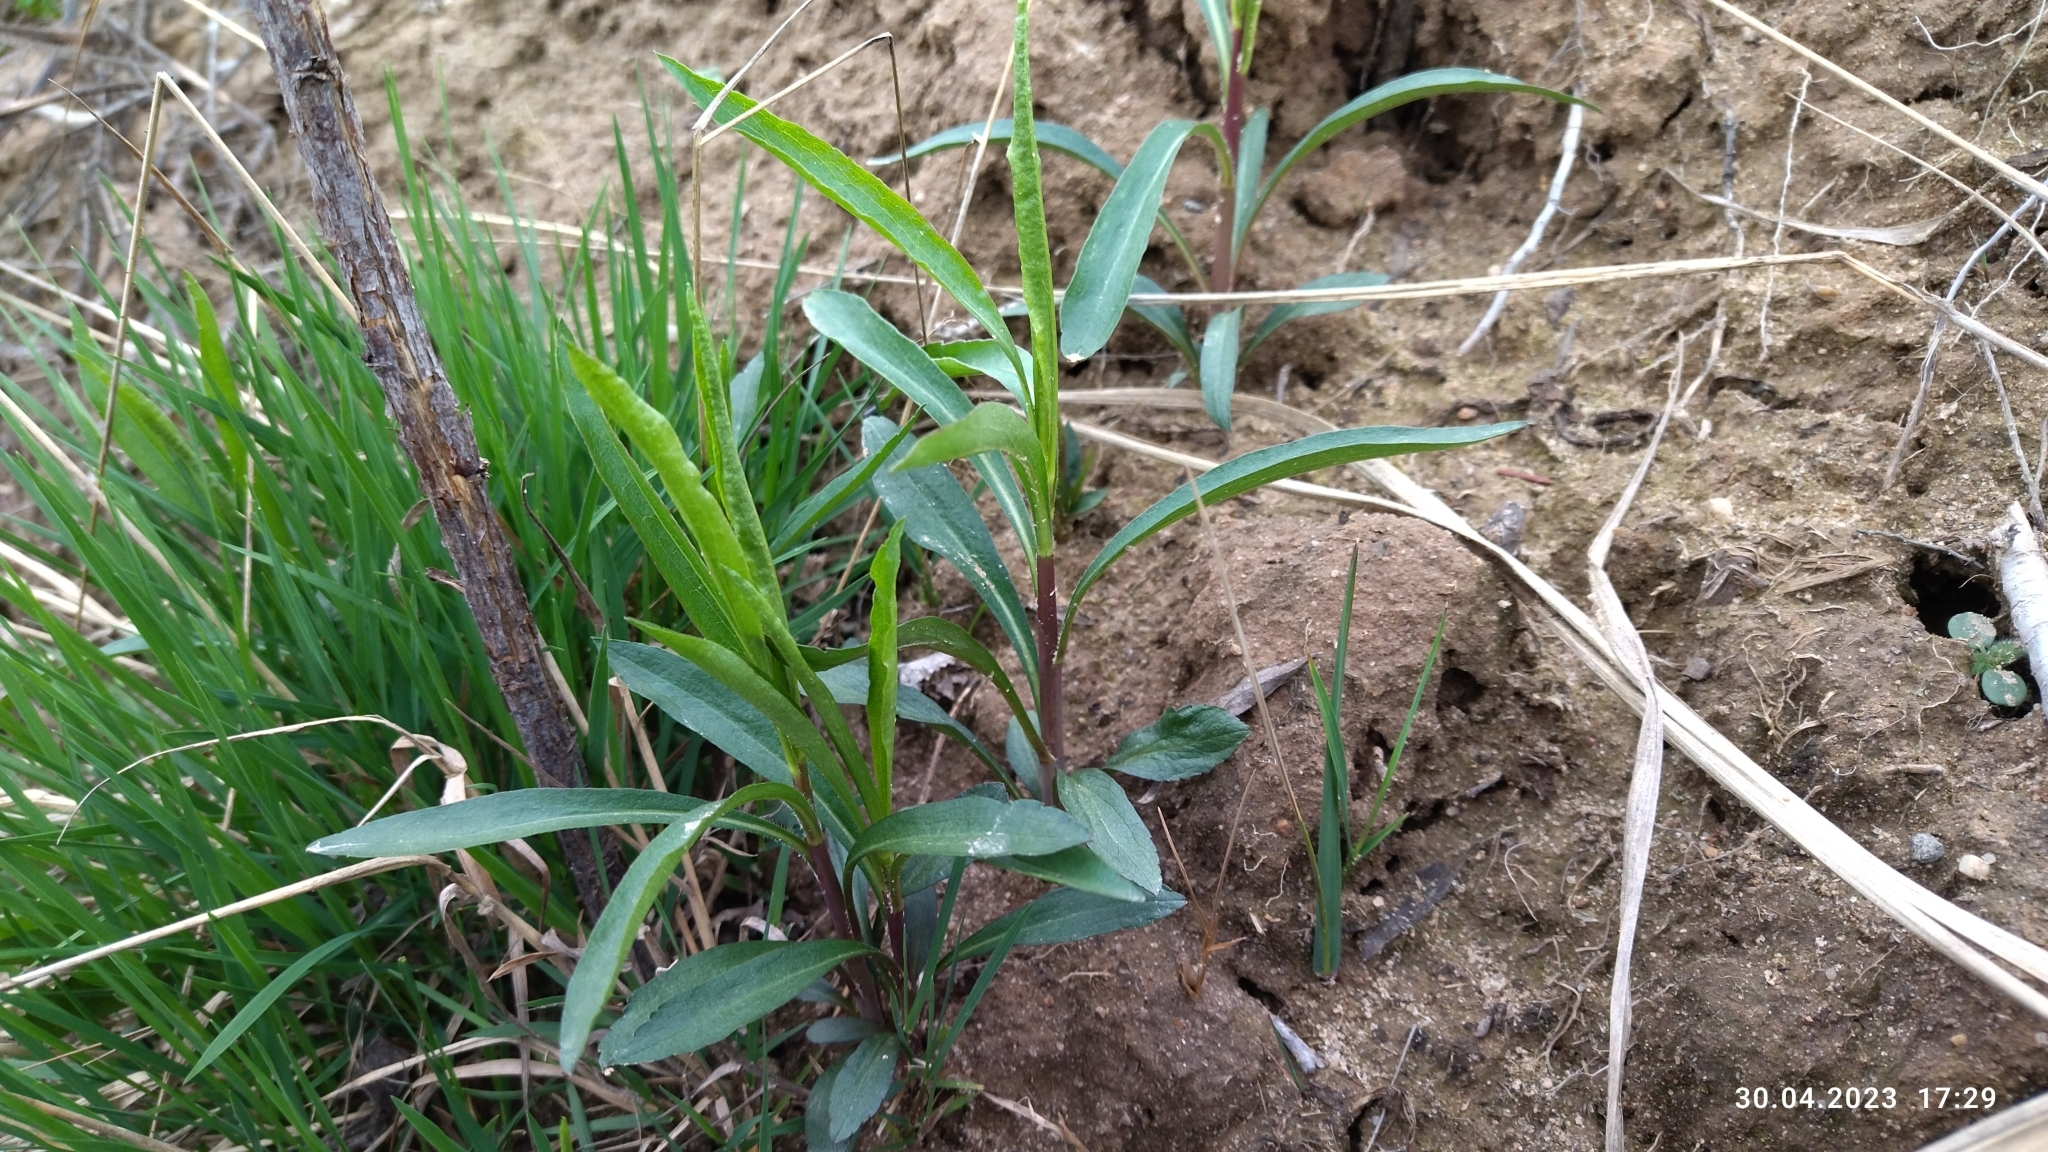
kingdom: Plantae
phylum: Tracheophyta
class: Magnoliopsida
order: Asterales
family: Asteraceae
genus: Solidago
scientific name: Solidago gigantea
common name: Giant goldenrod
